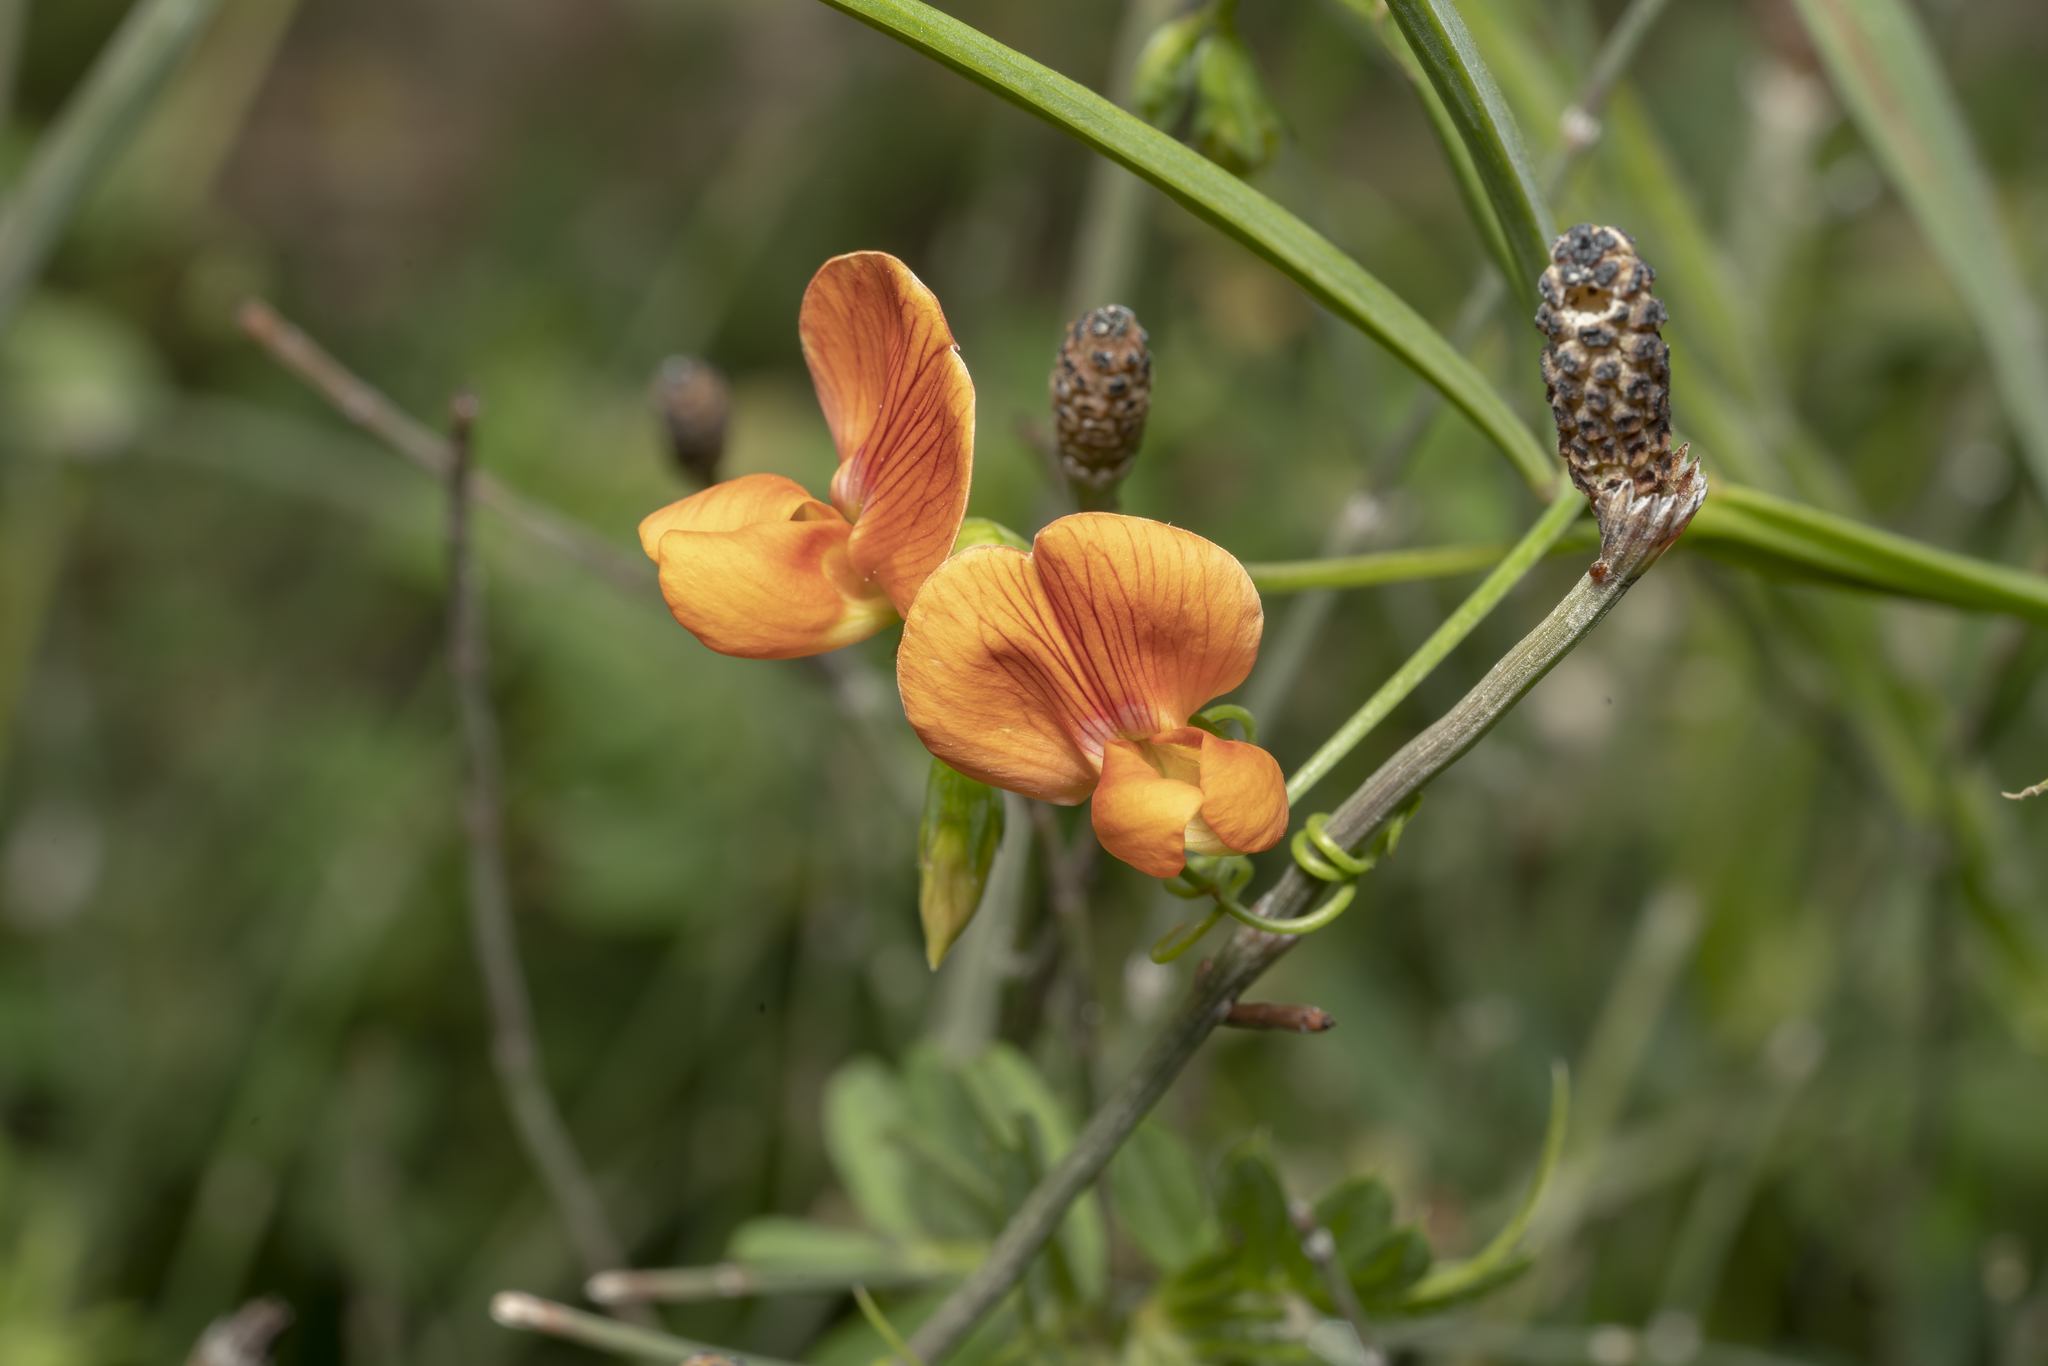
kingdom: Plantae
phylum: Tracheophyta
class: Magnoliopsida
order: Fabales
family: Fabaceae
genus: Lathyrus
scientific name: Lathyrus annuus
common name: Fodder pea
